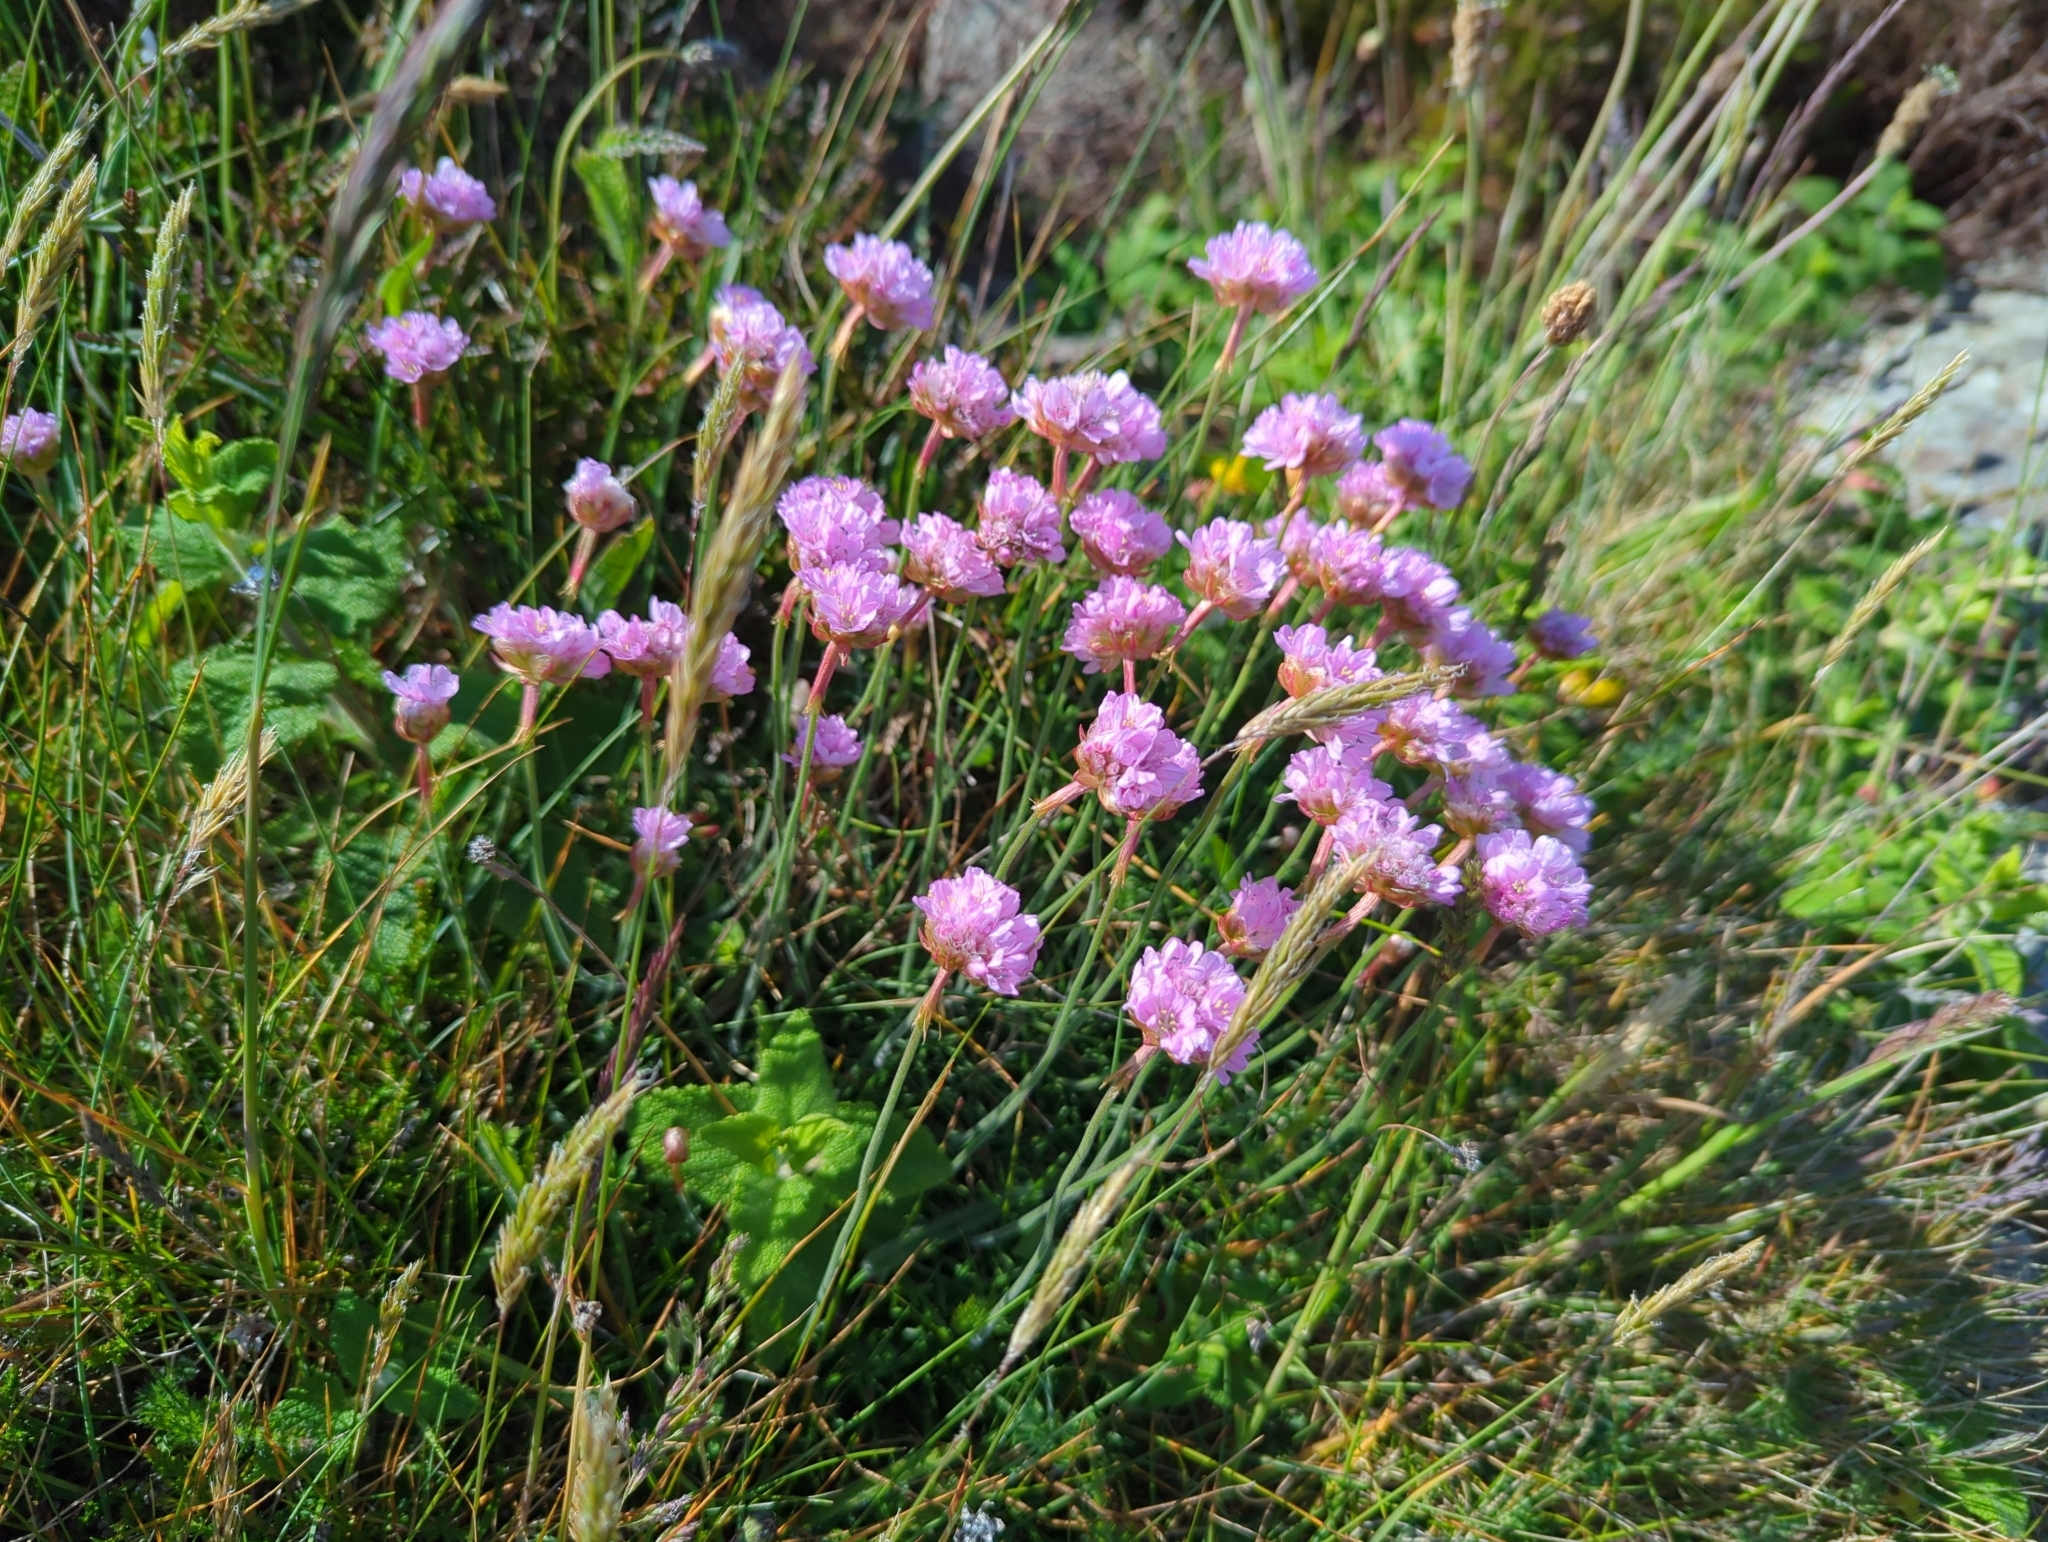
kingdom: Plantae
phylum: Tracheophyta
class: Magnoliopsida
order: Caryophyllales
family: Plumbaginaceae
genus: Armeria
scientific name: Armeria maritima
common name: Thrift
